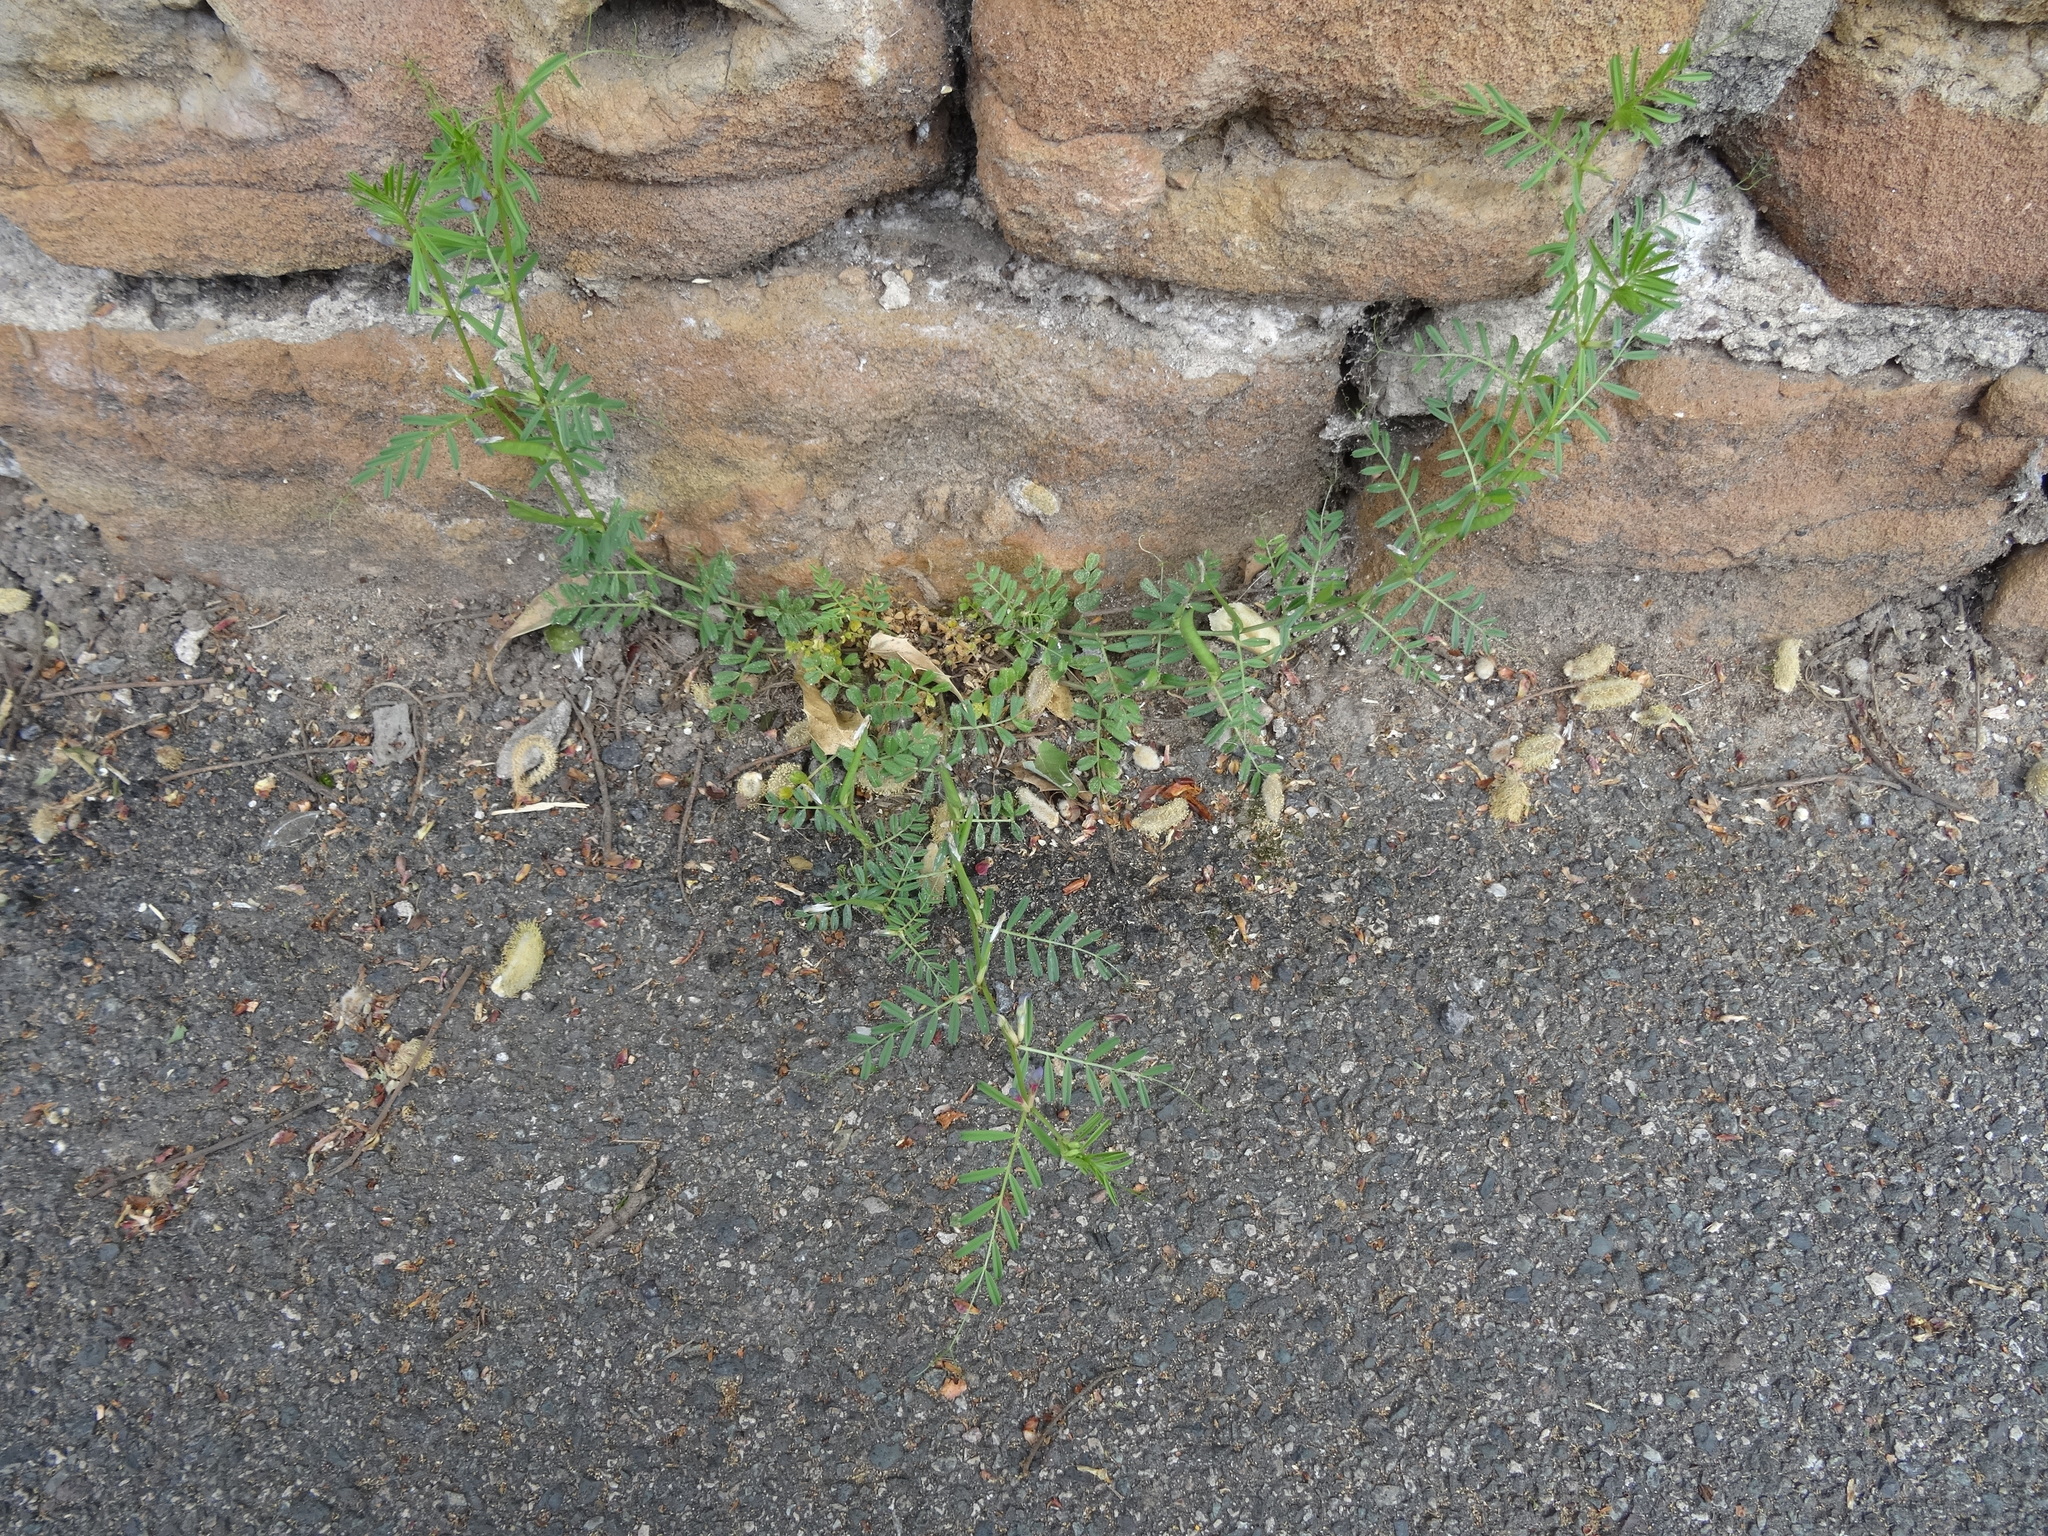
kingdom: Plantae
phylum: Tracheophyta
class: Magnoliopsida
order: Fabales
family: Fabaceae
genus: Vicia
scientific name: Vicia hirsuta
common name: Tiny vetch
